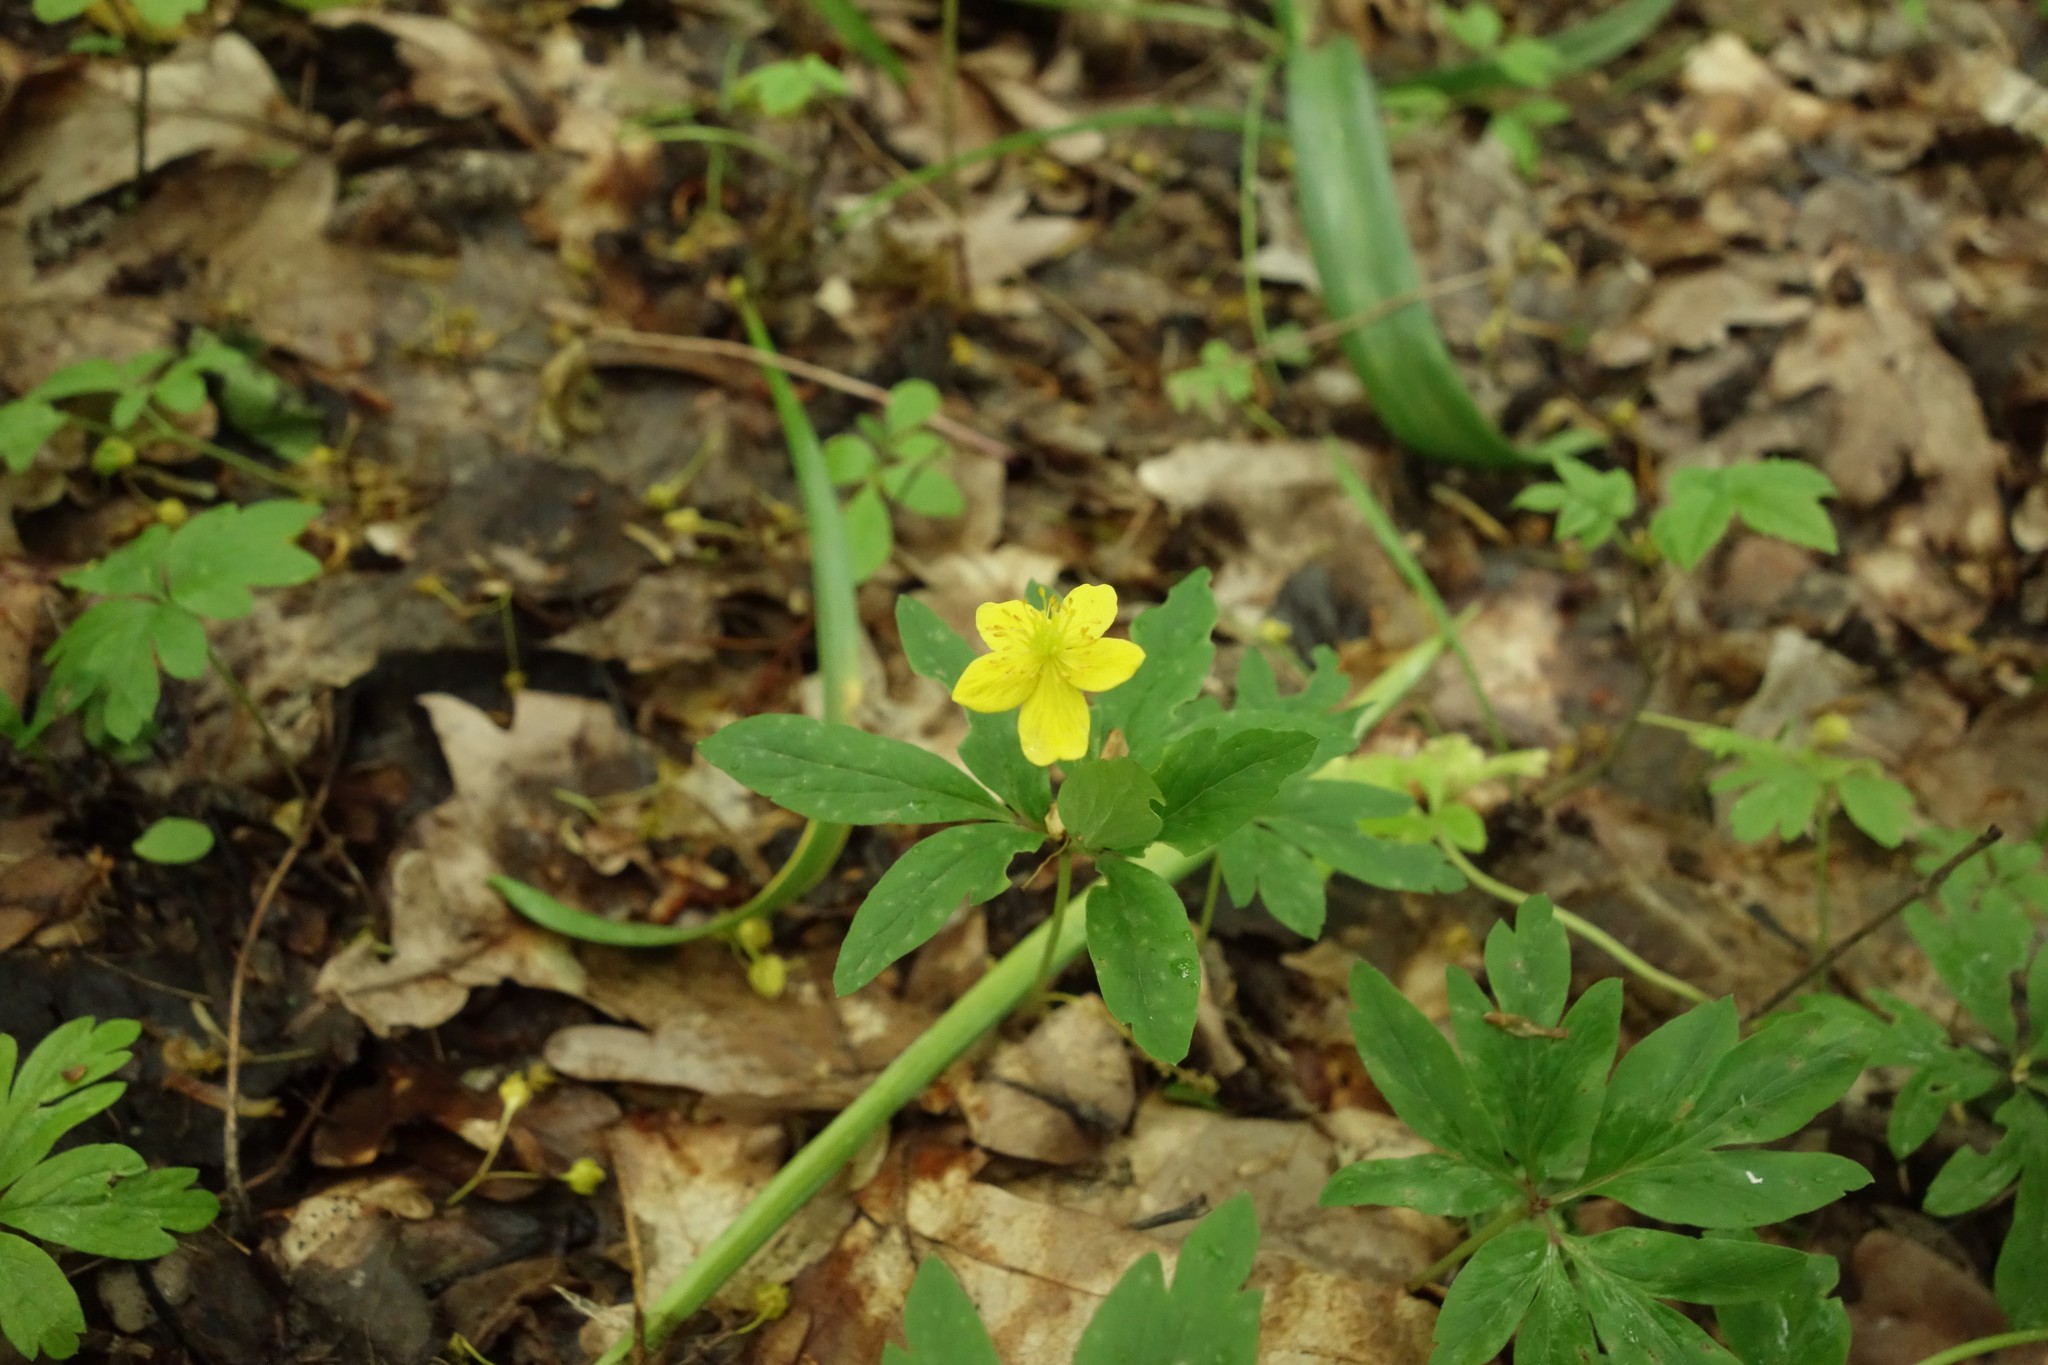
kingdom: Plantae
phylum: Tracheophyta
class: Magnoliopsida
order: Ranunculales
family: Ranunculaceae
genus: Anemone
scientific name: Anemone ranunculoides
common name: Yellow anemone
